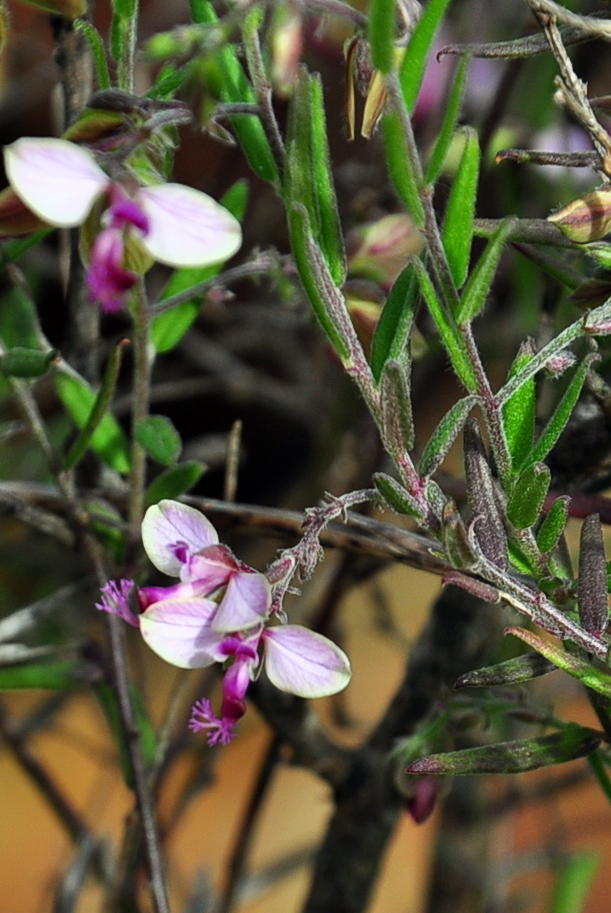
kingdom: Plantae
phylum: Tracheophyta
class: Magnoliopsida
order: Fabales
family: Polygalaceae
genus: Polygala
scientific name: Polygala scabra
